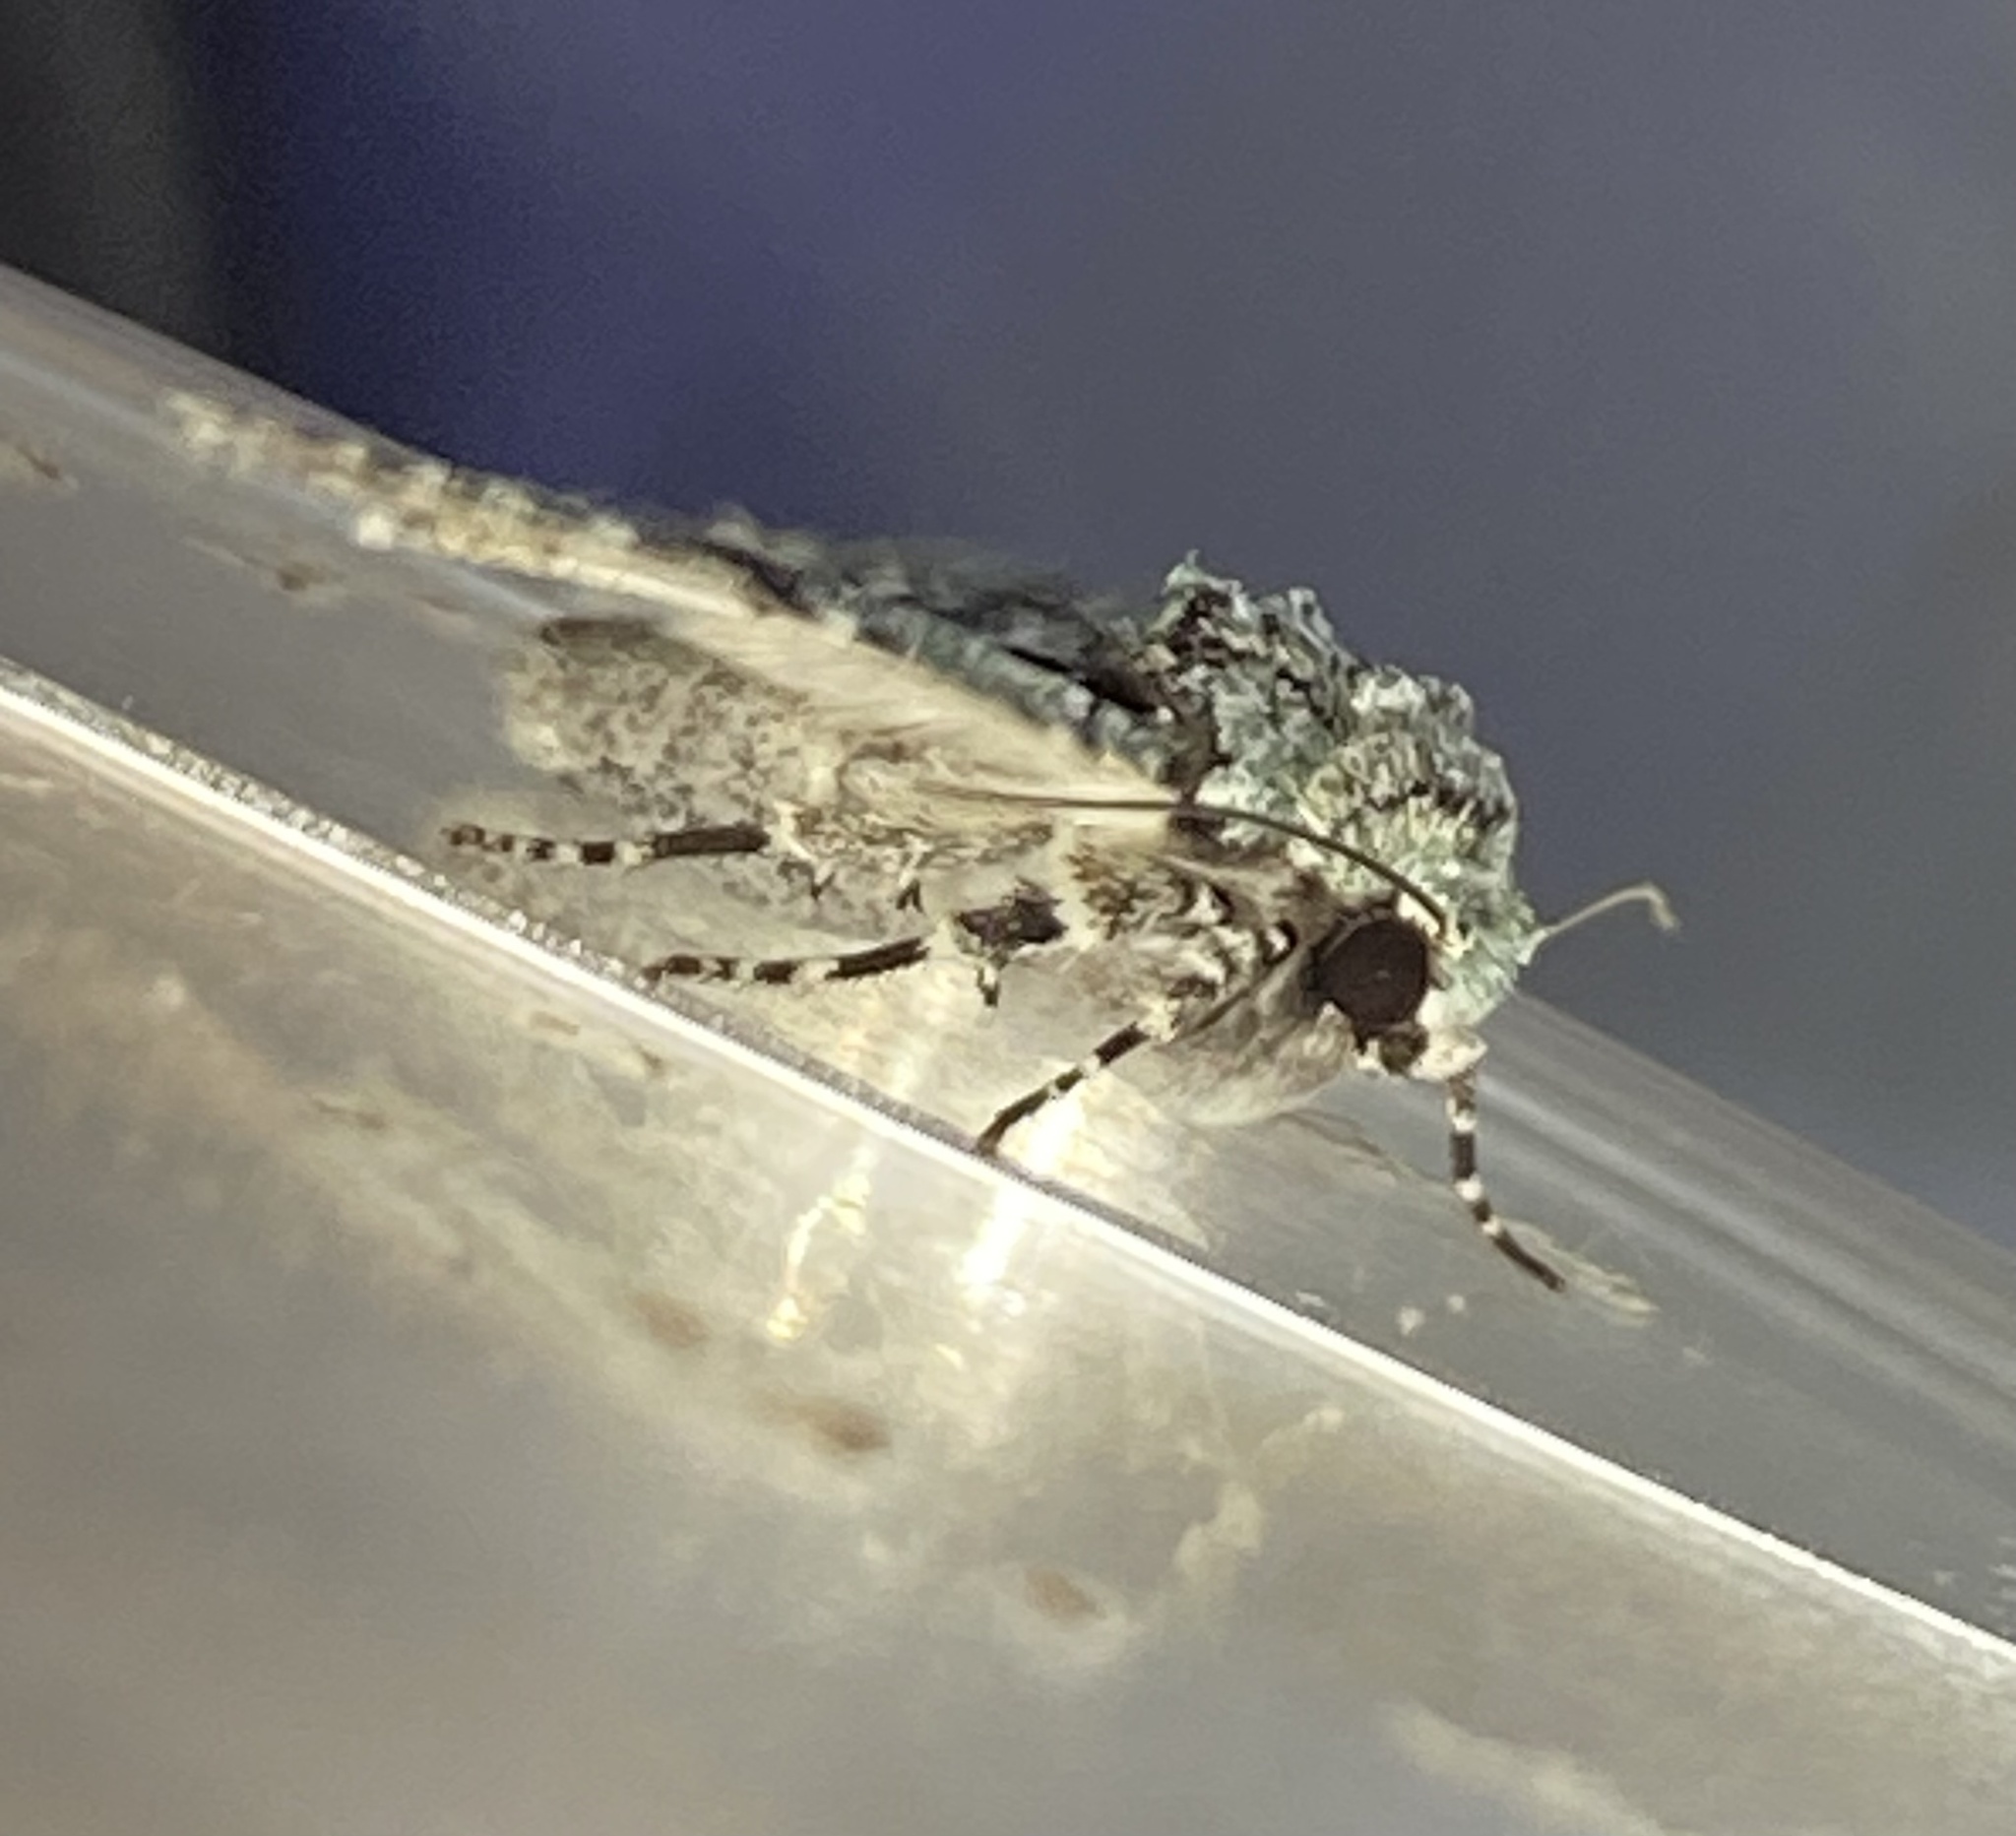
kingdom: Animalia
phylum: Arthropoda
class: Insecta
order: Lepidoptera
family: Noctuidae
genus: Lacinipolia
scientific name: Lacinipolia laudabilis
